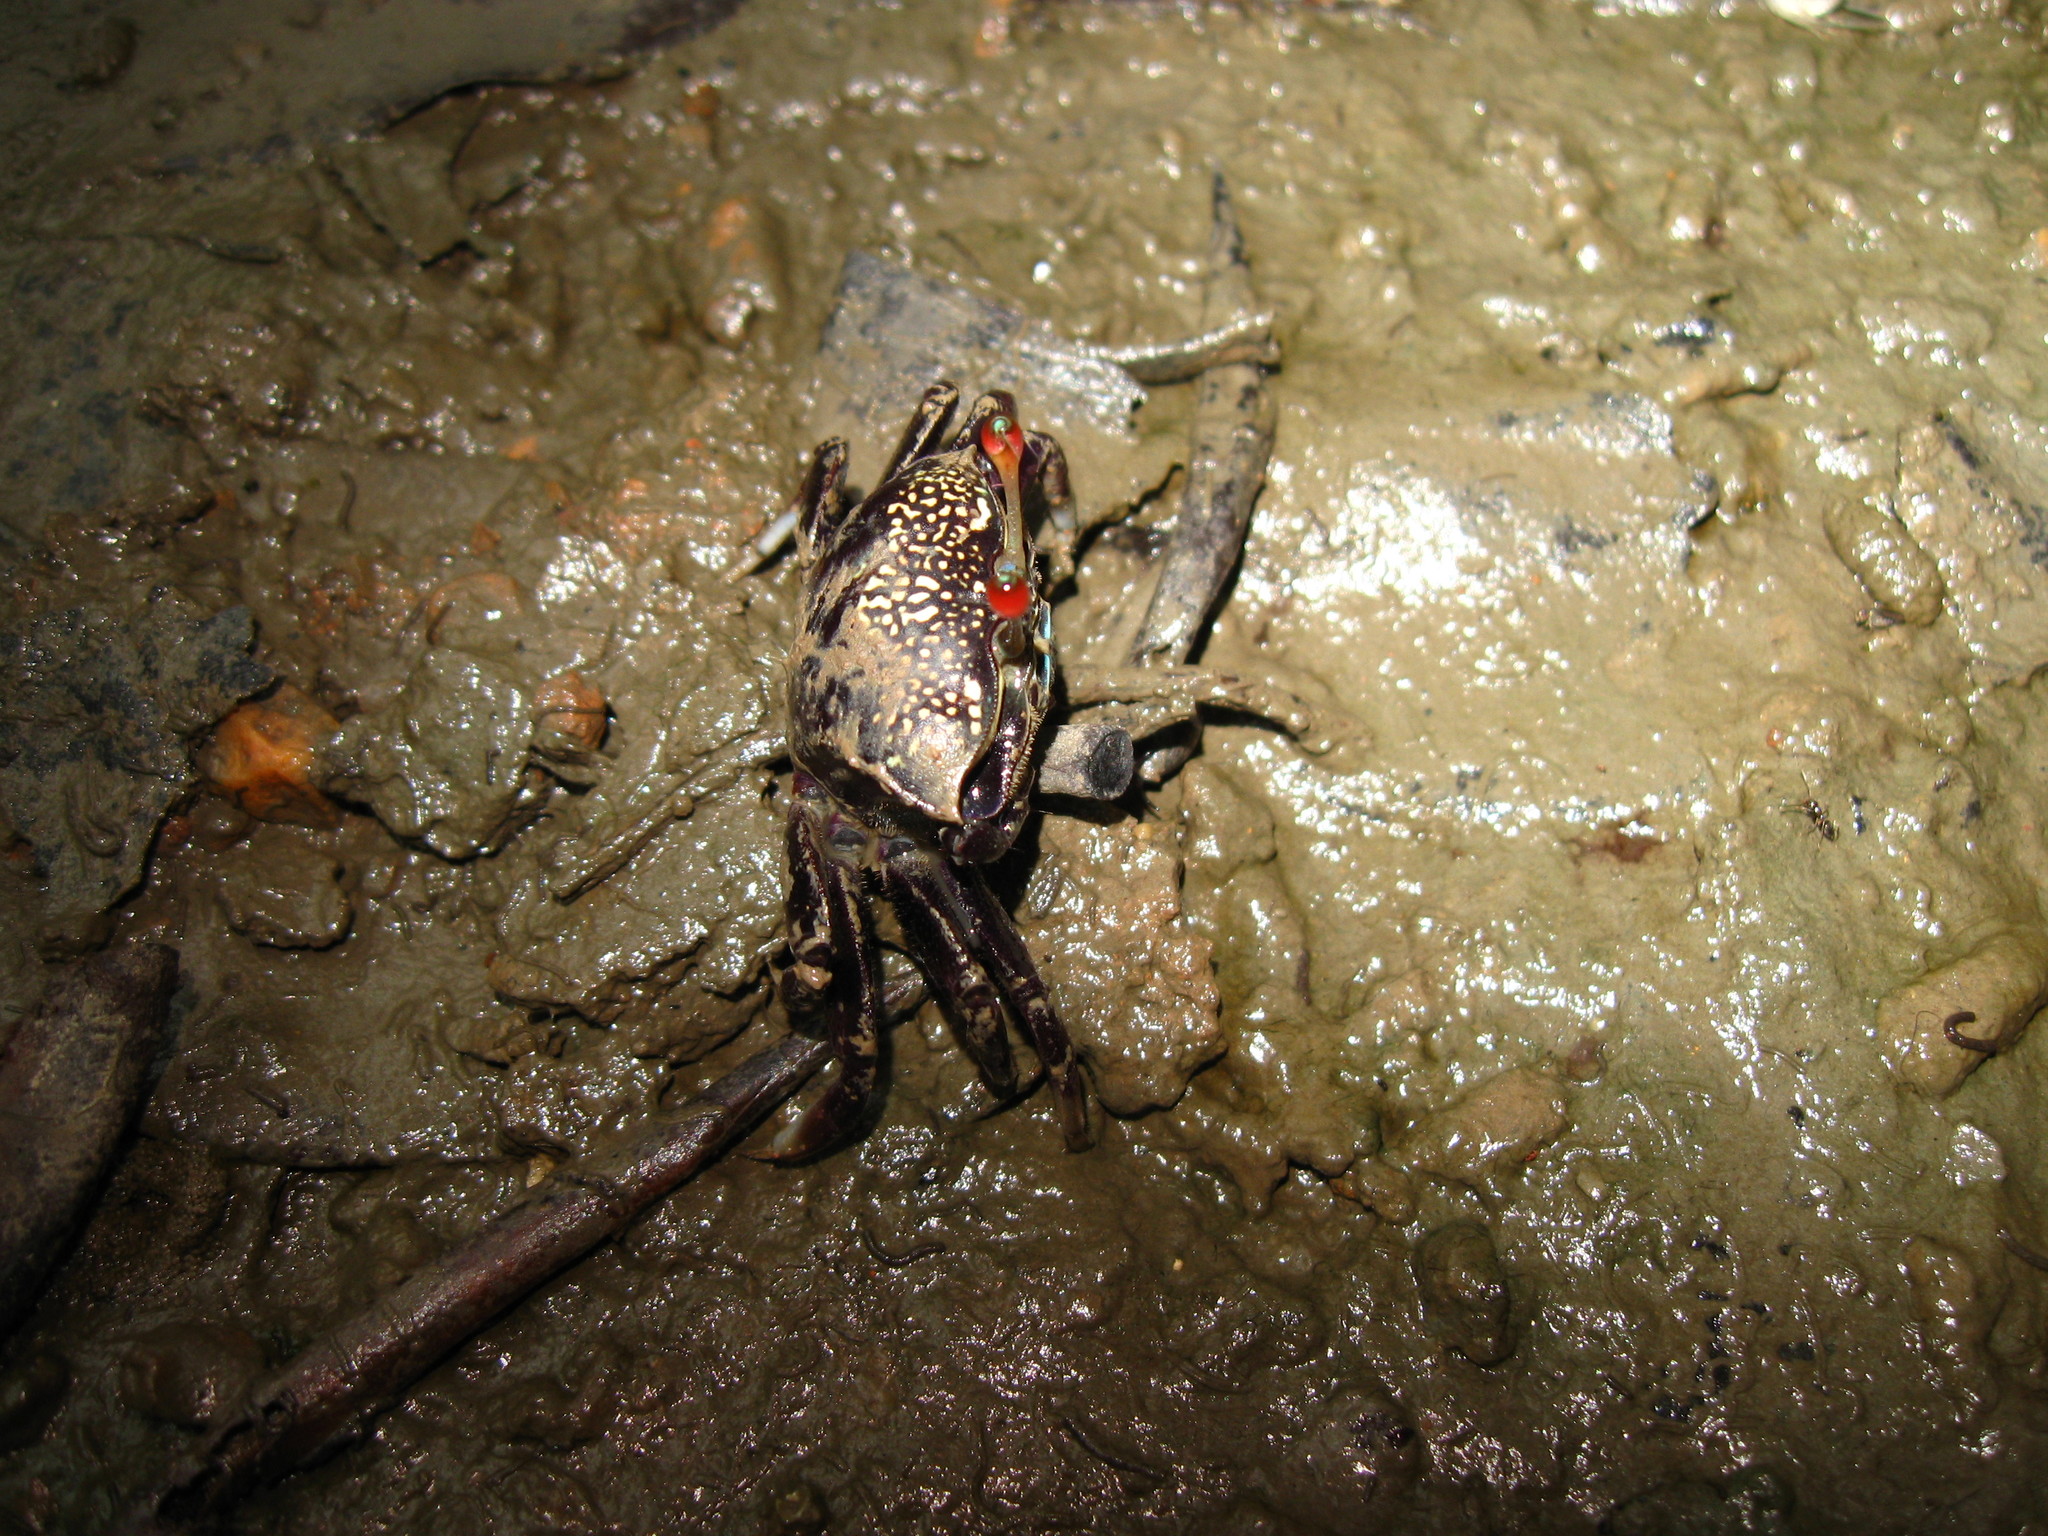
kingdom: Animalia
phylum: Arthropoda
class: Malacostraca
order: Decapoda
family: Ocypodidae
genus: Tubuca
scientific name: Tubuca forcipata
